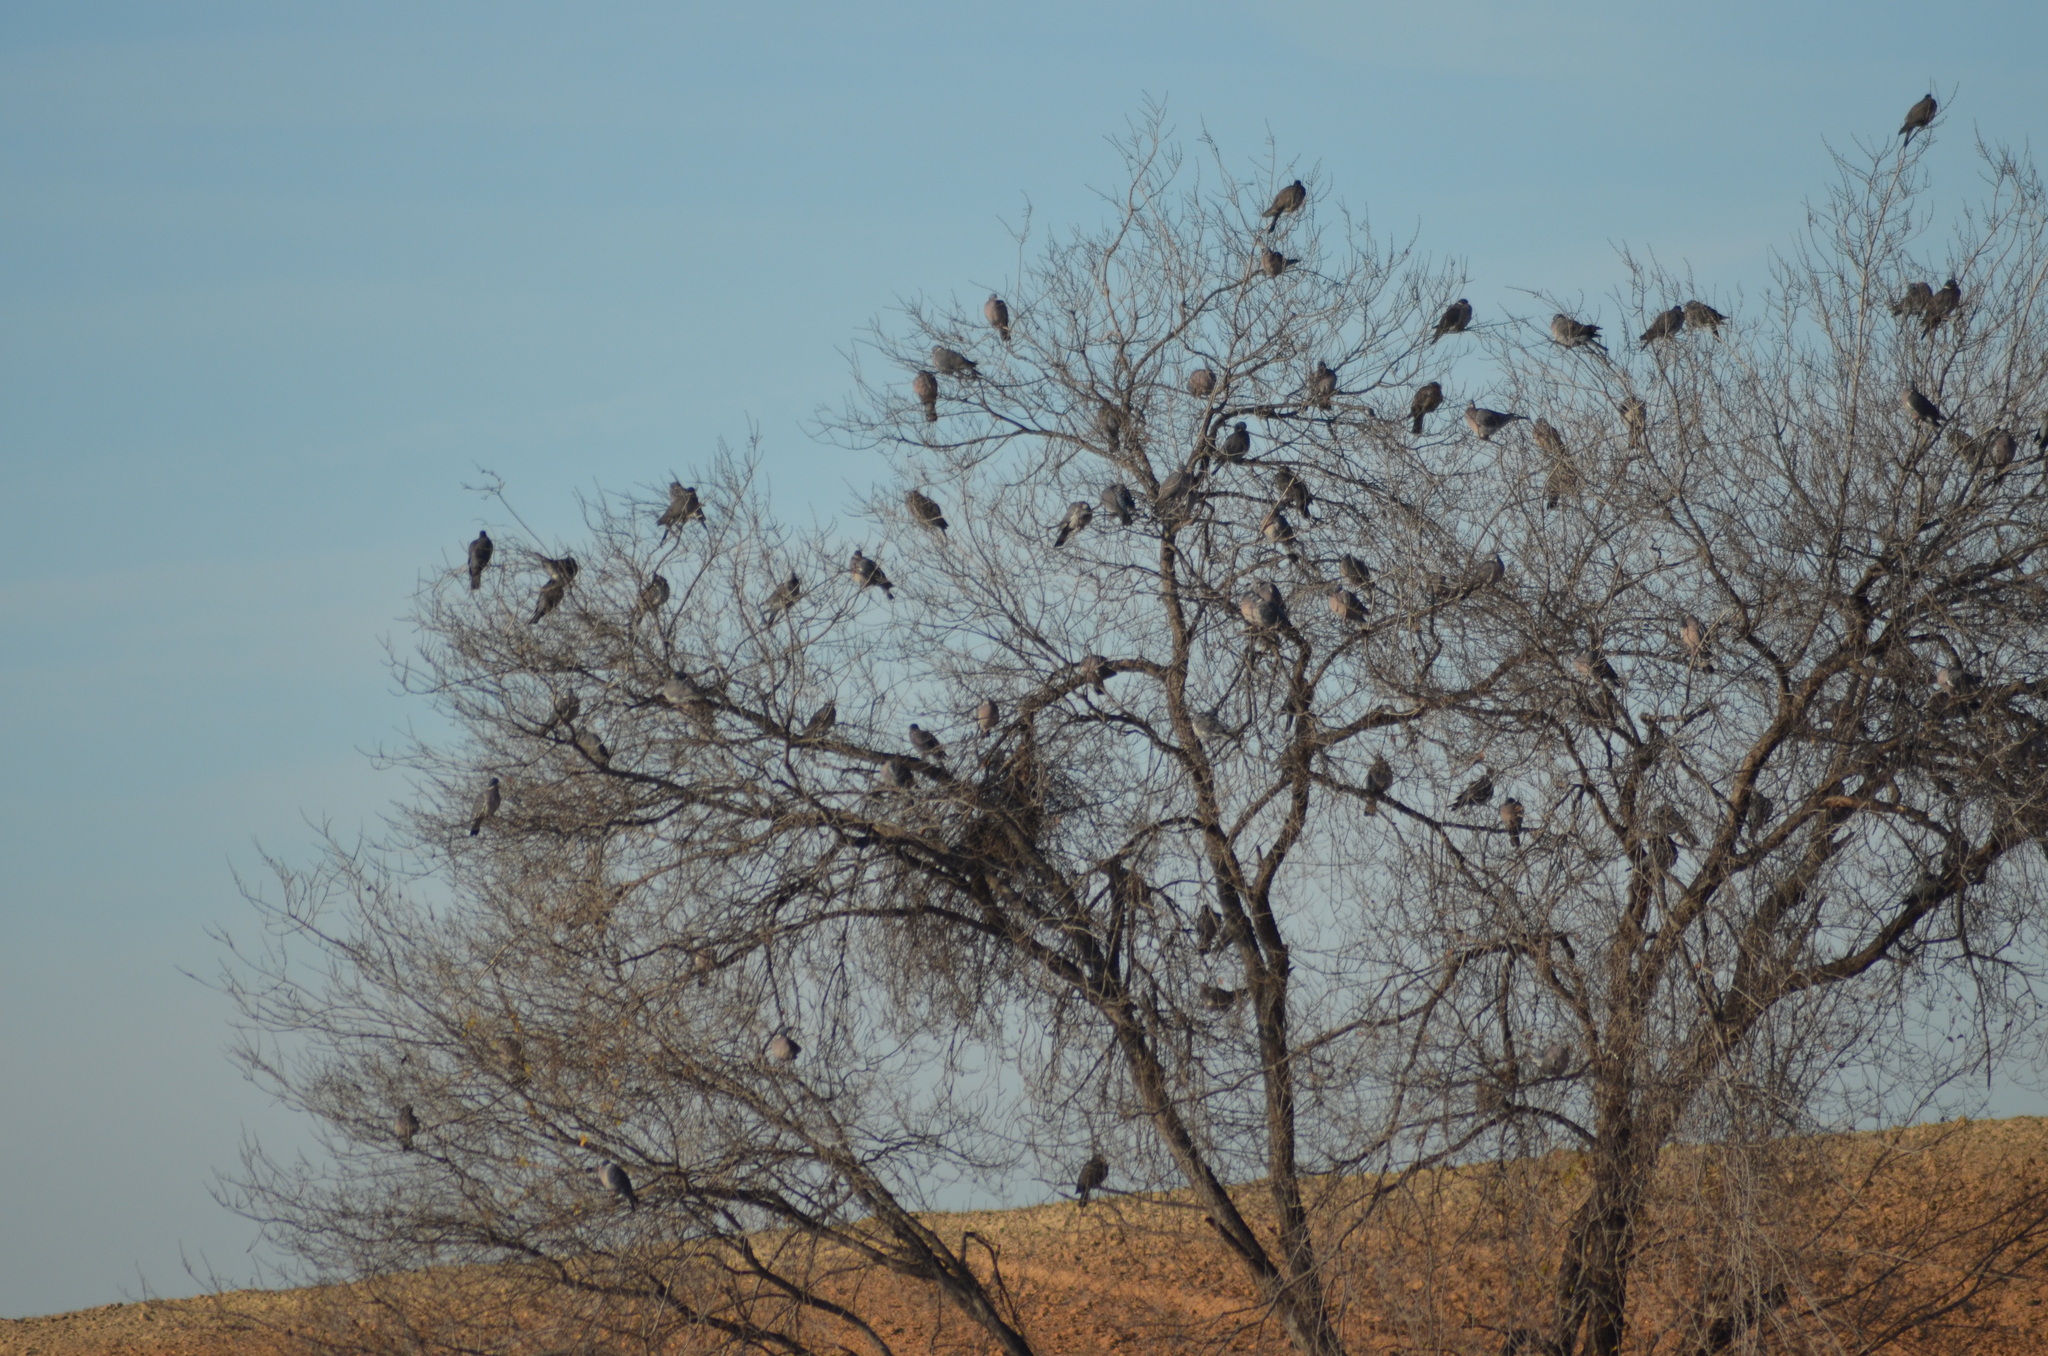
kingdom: Animalia
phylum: Chordata
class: Aves
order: Columbiformes
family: Columbidae
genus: Columba
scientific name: Columba palumbus
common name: Common wood pigeon
